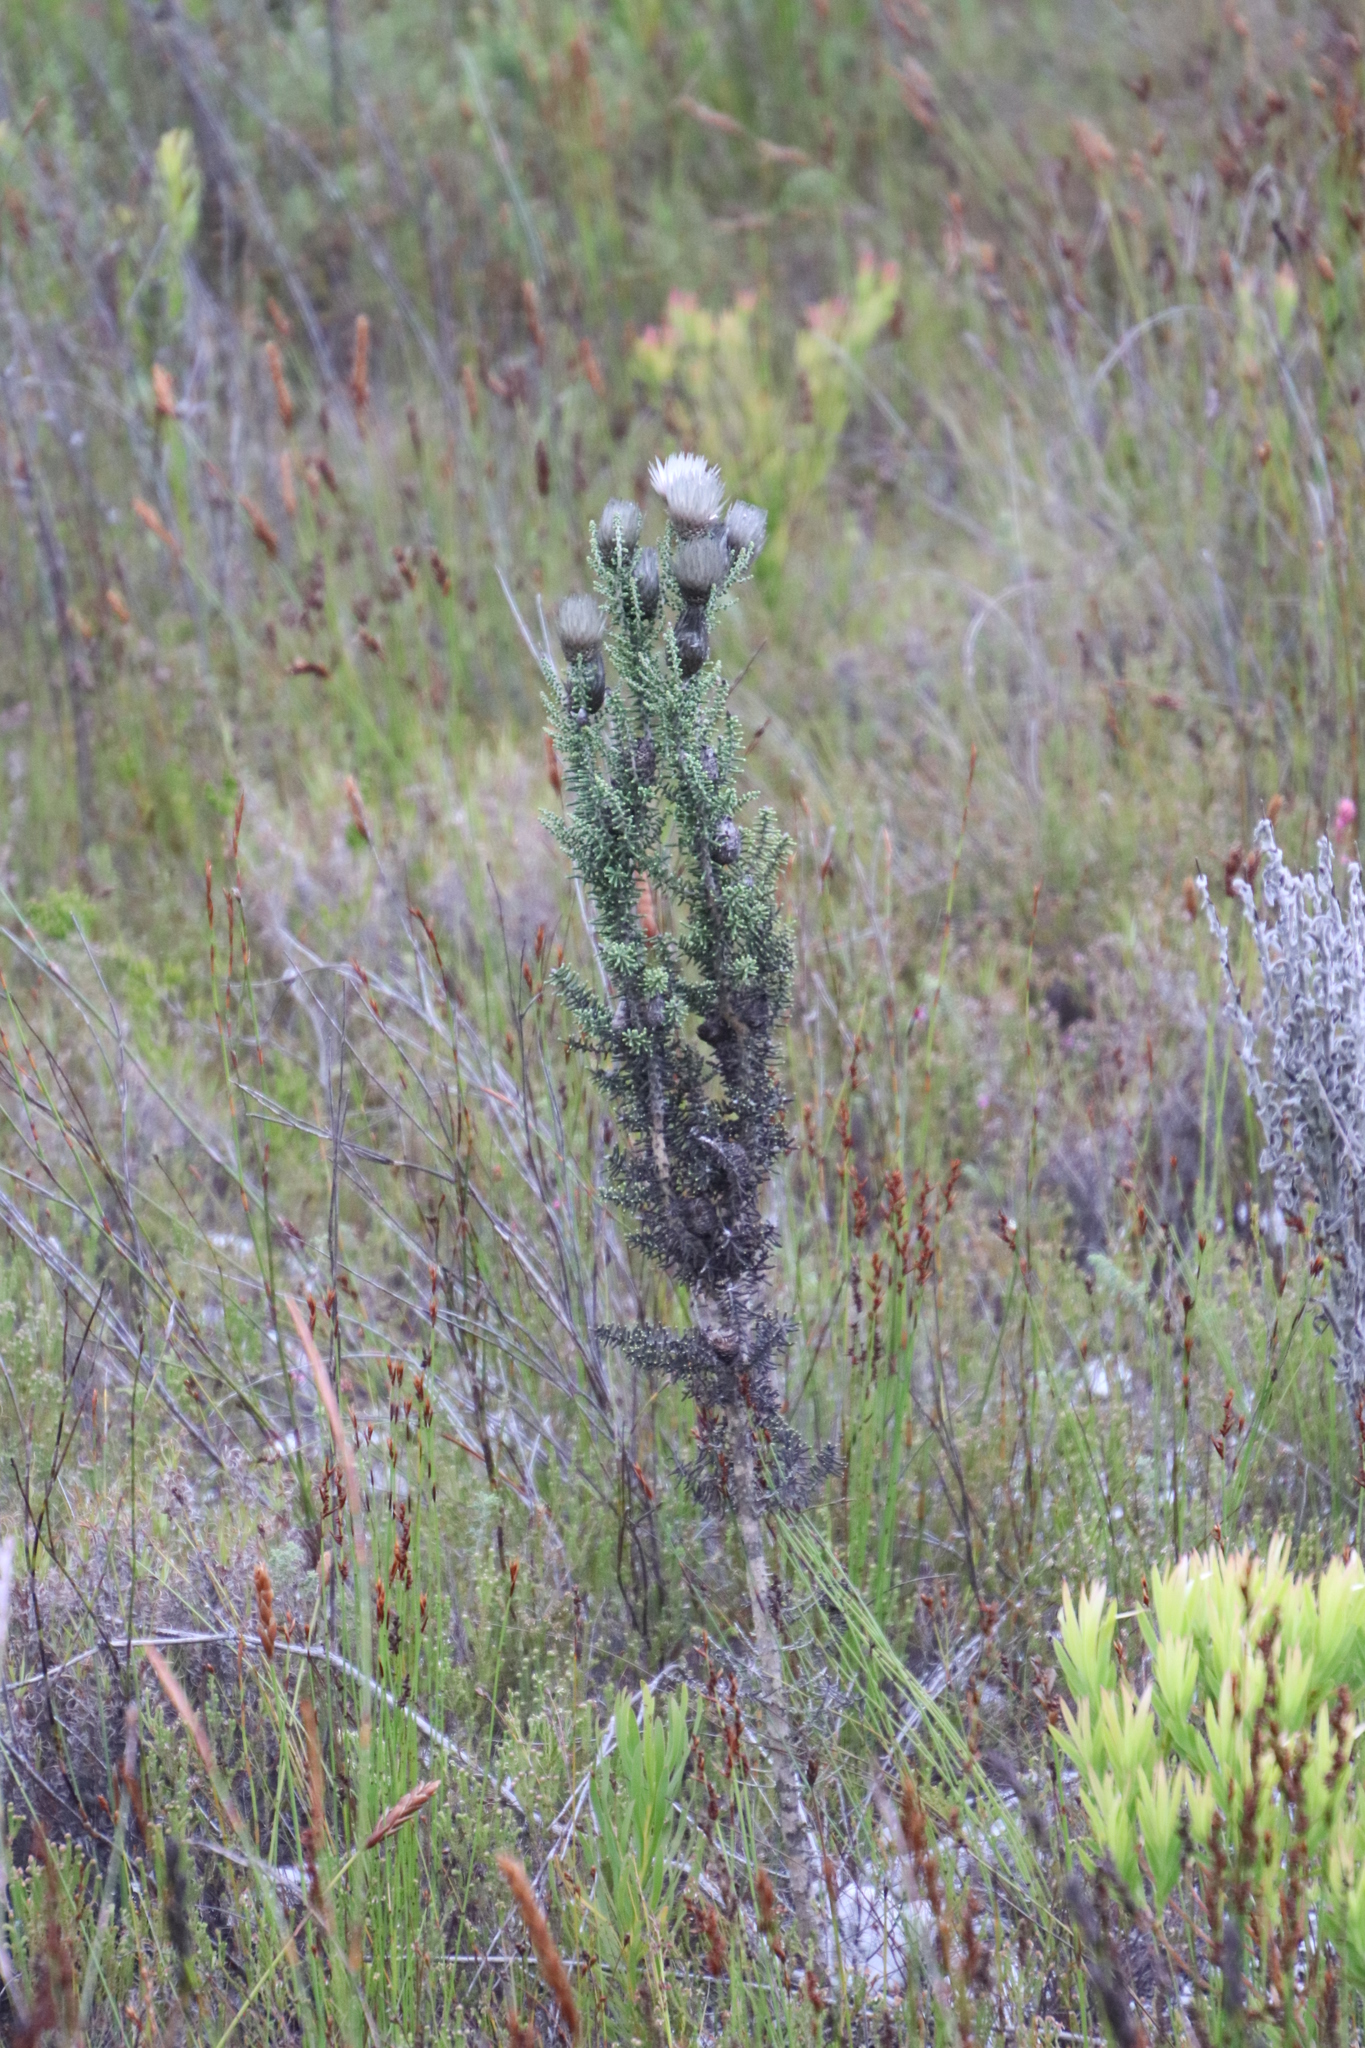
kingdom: Plantae
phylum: Tracheophyta
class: Magnoliopsida
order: Asterales
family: Asteraceae
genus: Phaenocoma
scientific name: Phaenocoma prolifera
